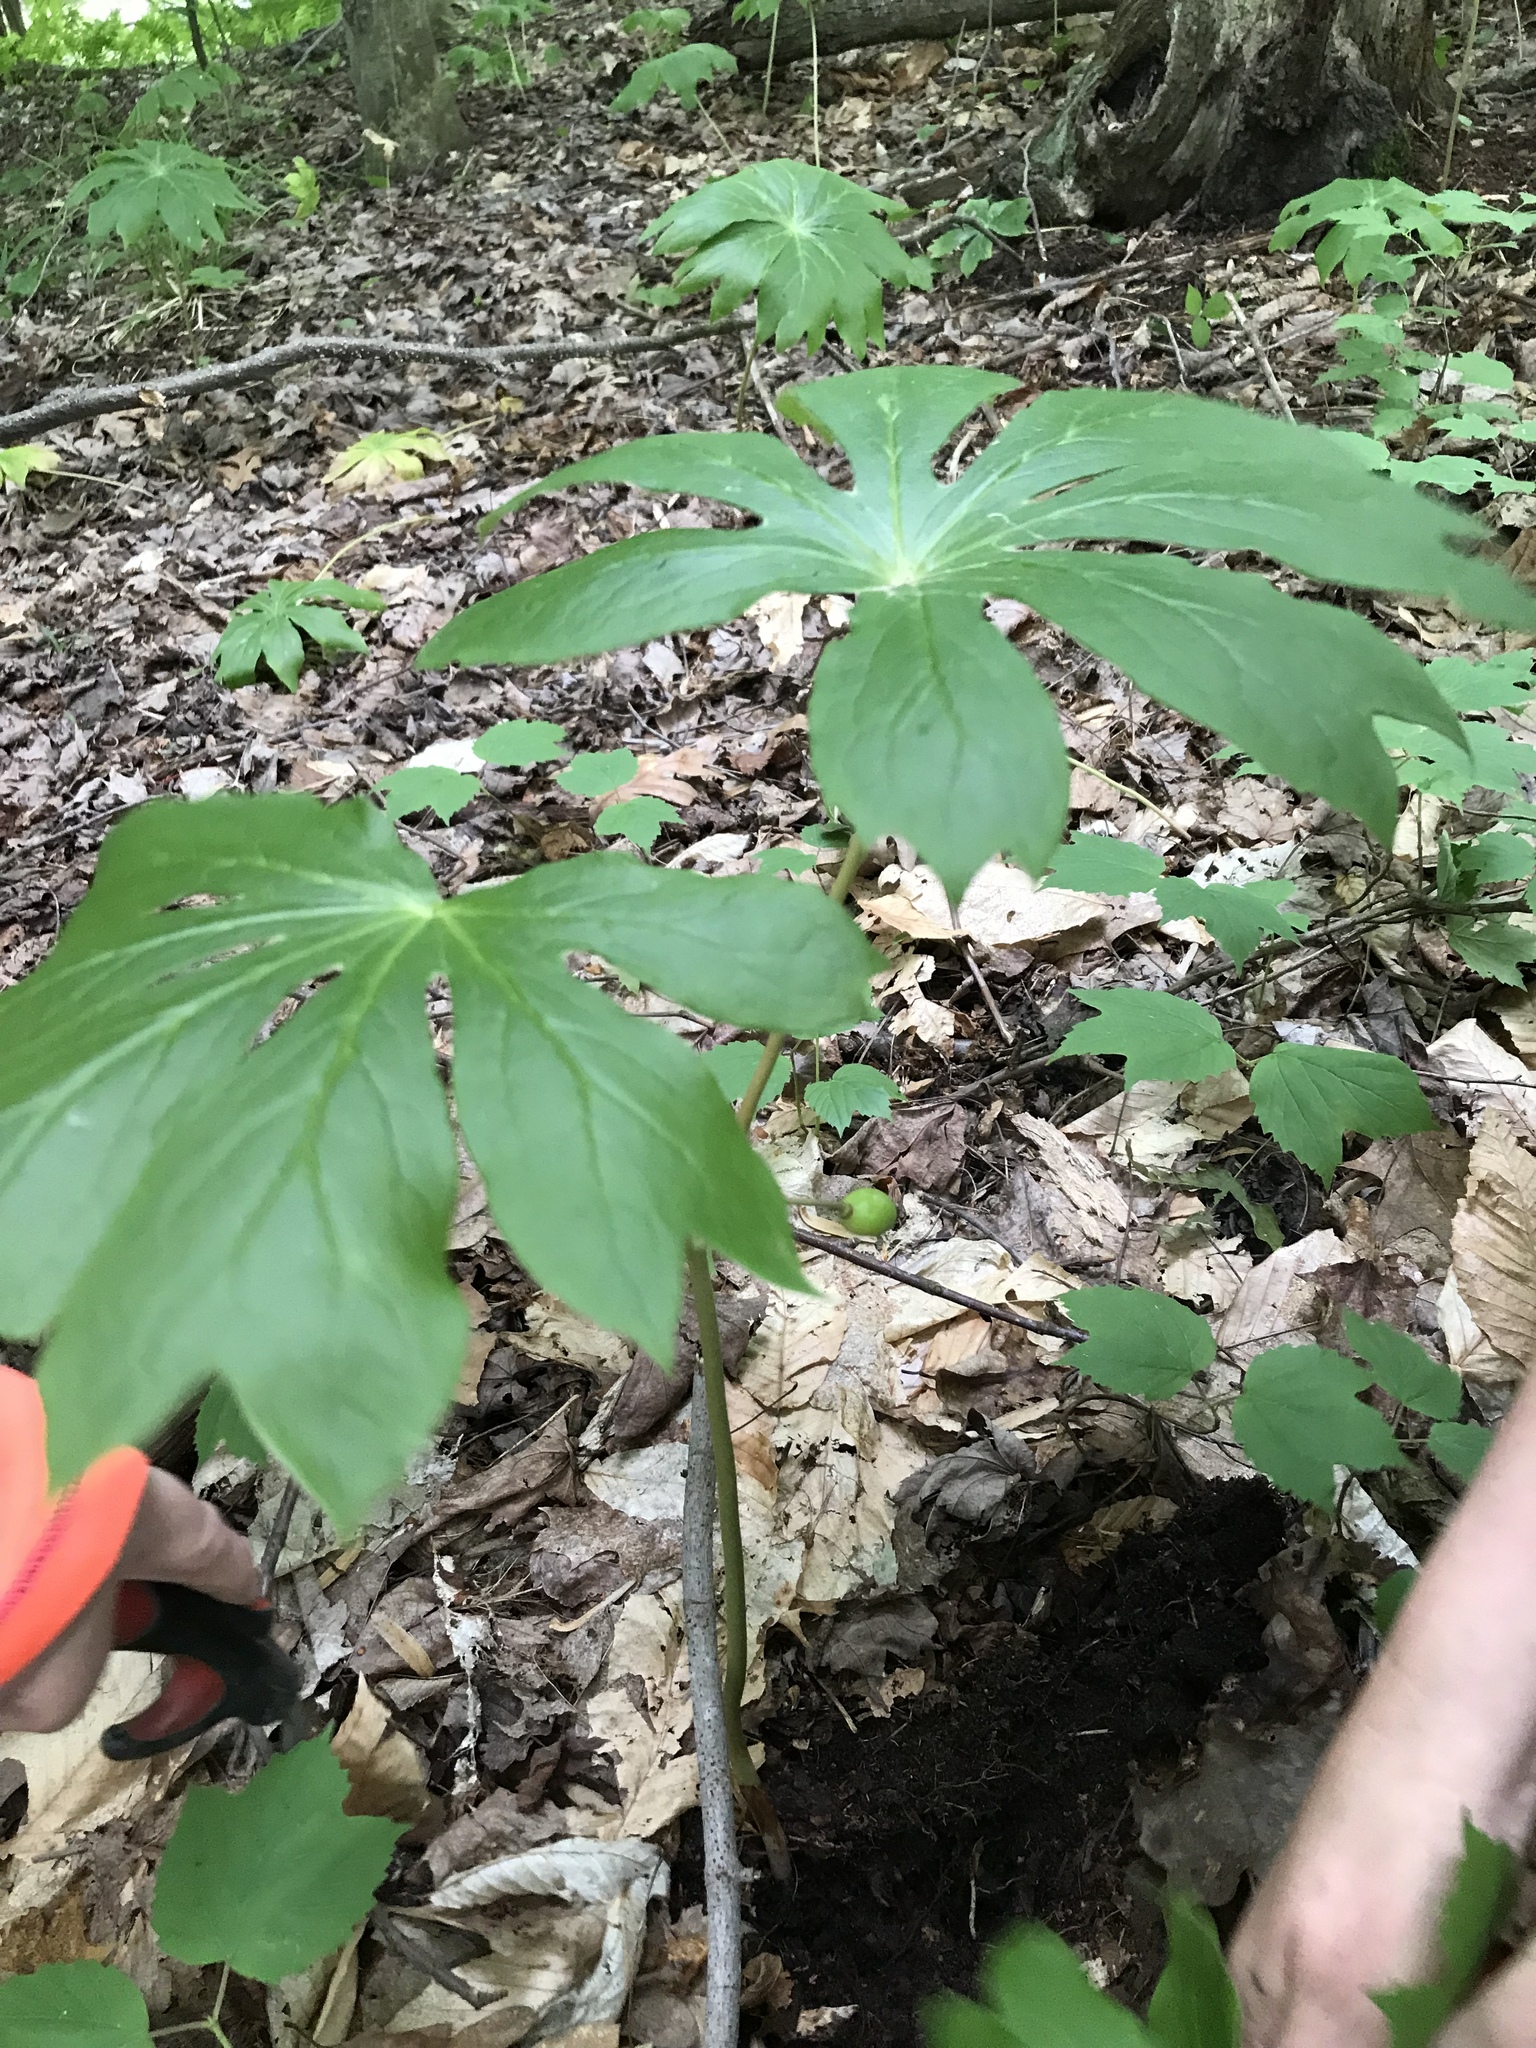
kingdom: Plantae
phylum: Tracheophyta
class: Magnoliopsida
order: Ranunculales
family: Berberidaceae
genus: Podophyllum
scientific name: Podophyllum peltatum
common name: Wild mandrake
